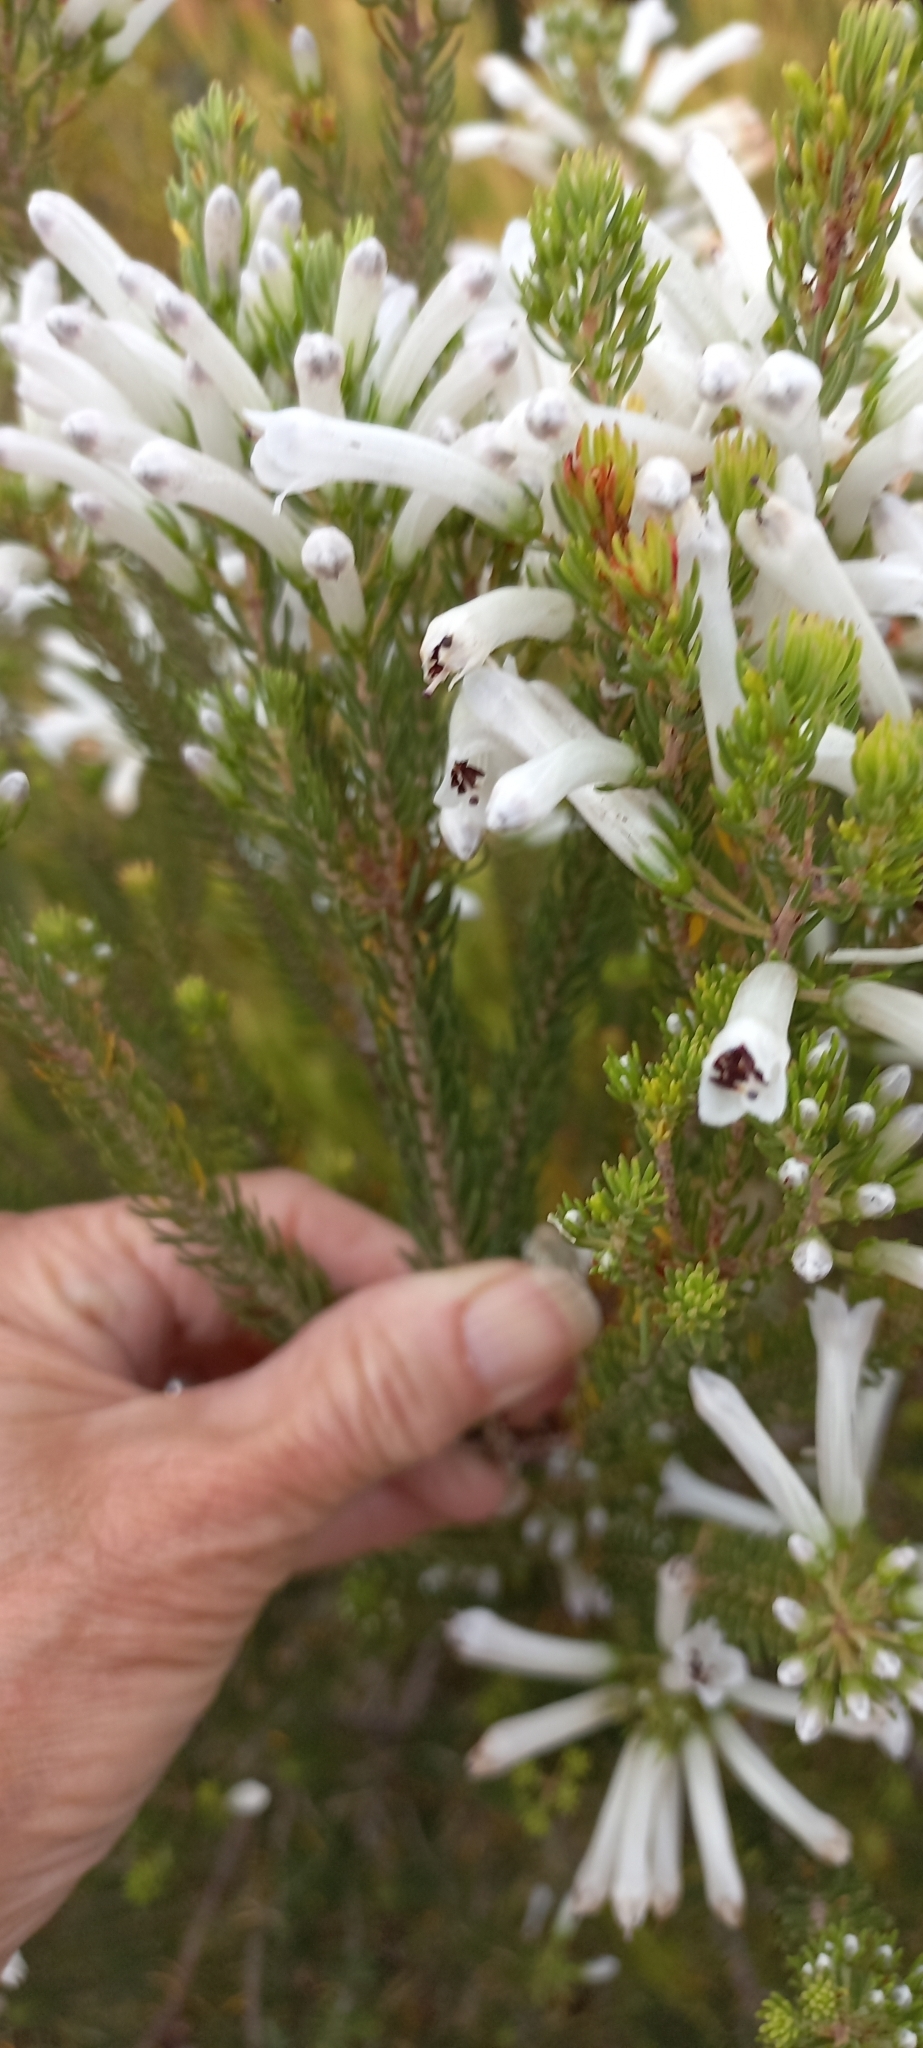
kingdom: Plantae
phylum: Tracheophyta
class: Magnoliopsida
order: Ericales
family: Ericaceae
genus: Erica
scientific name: Erica pinea
